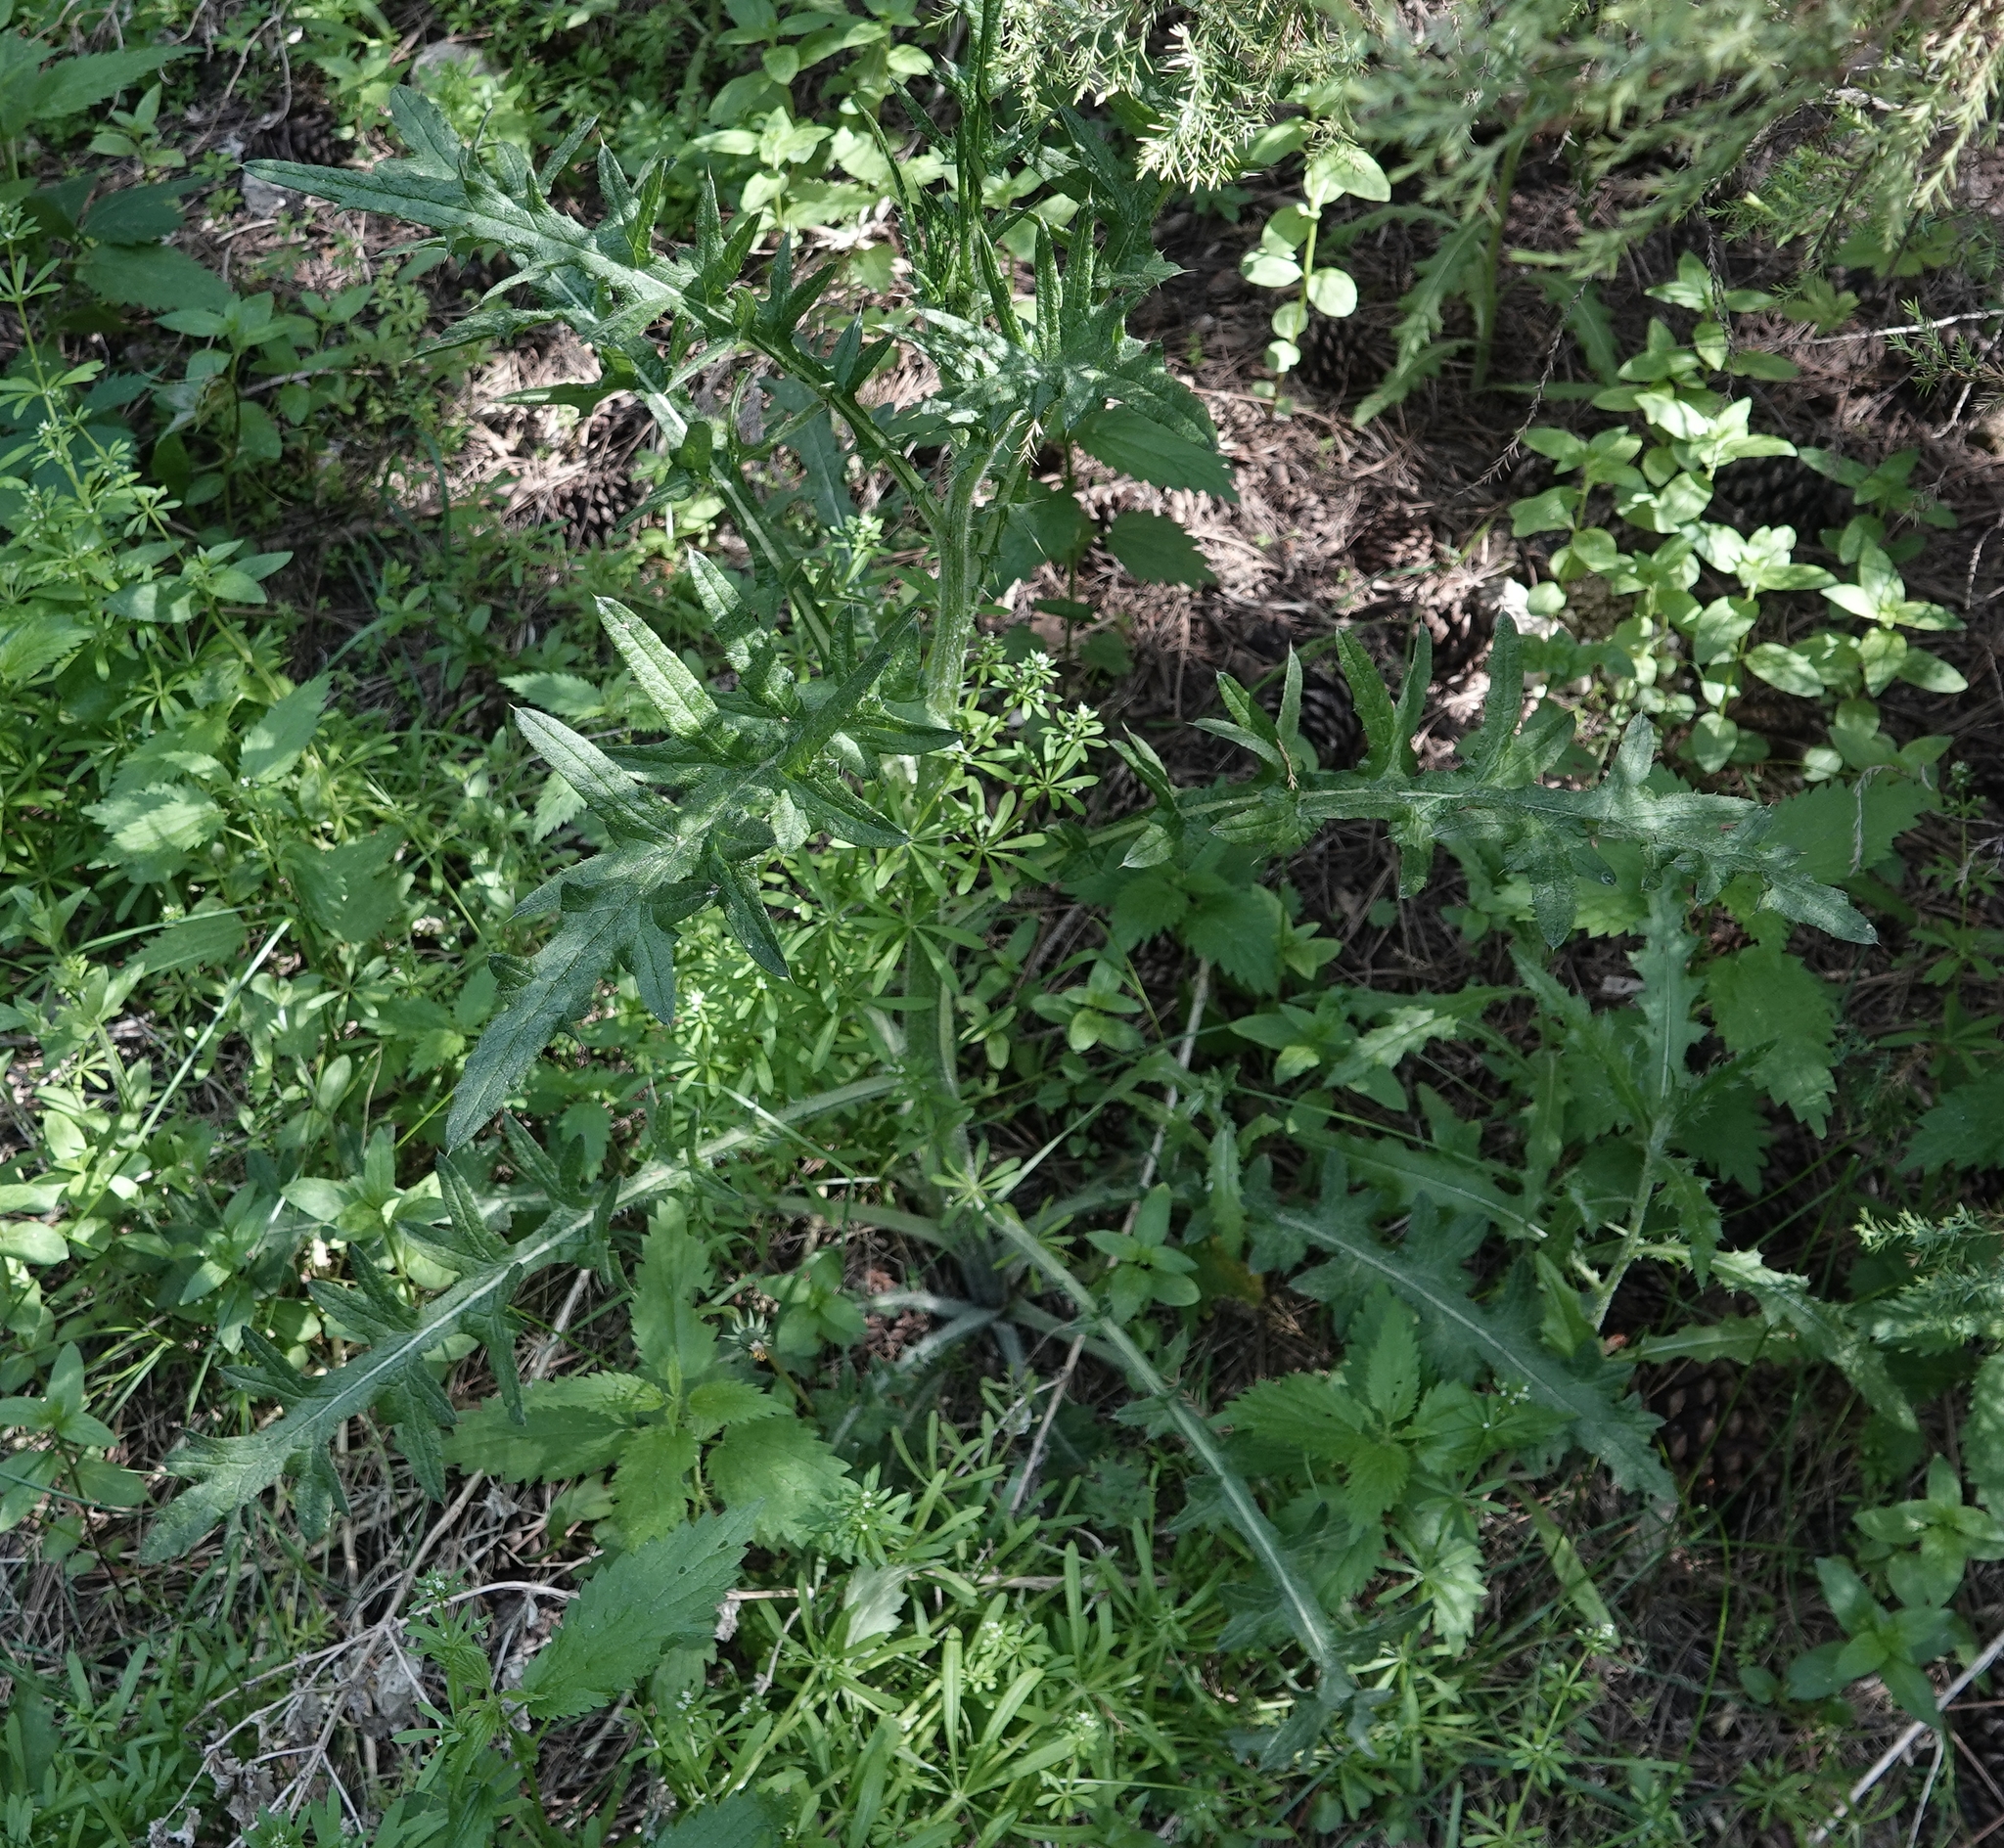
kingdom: Plantae
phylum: Tracheophyta
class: Magnoliopsida
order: Asterales
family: Asteraceae
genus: Cirsium
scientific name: Cirsium vulgare
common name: Bull thistle
